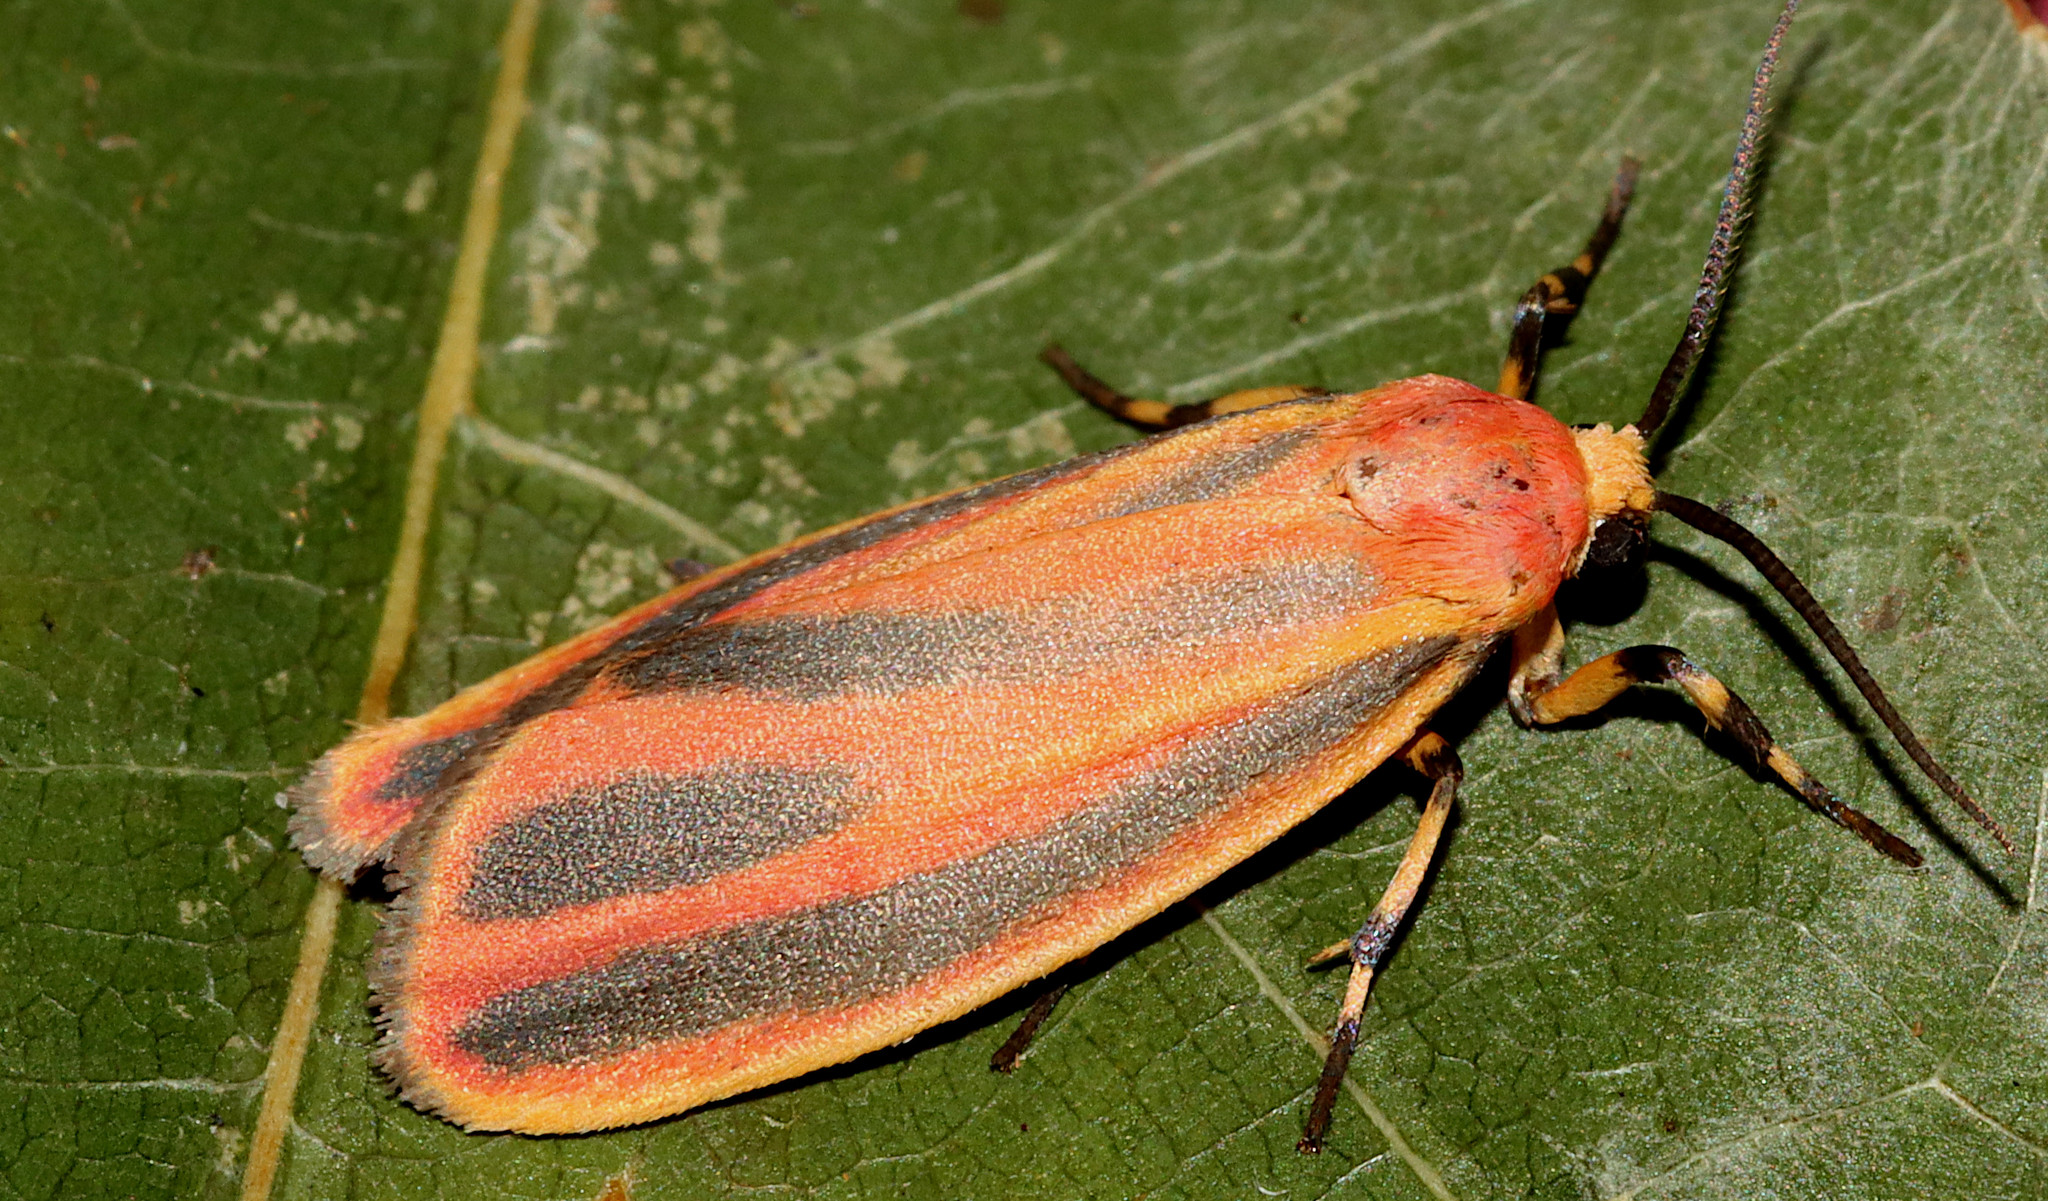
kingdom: Animalia
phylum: Arthropoda
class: Insecta
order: Lepidoptera
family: Erebidae
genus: Hypoprepia
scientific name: Hypoprepia fucosa
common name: Painted lichen moth
